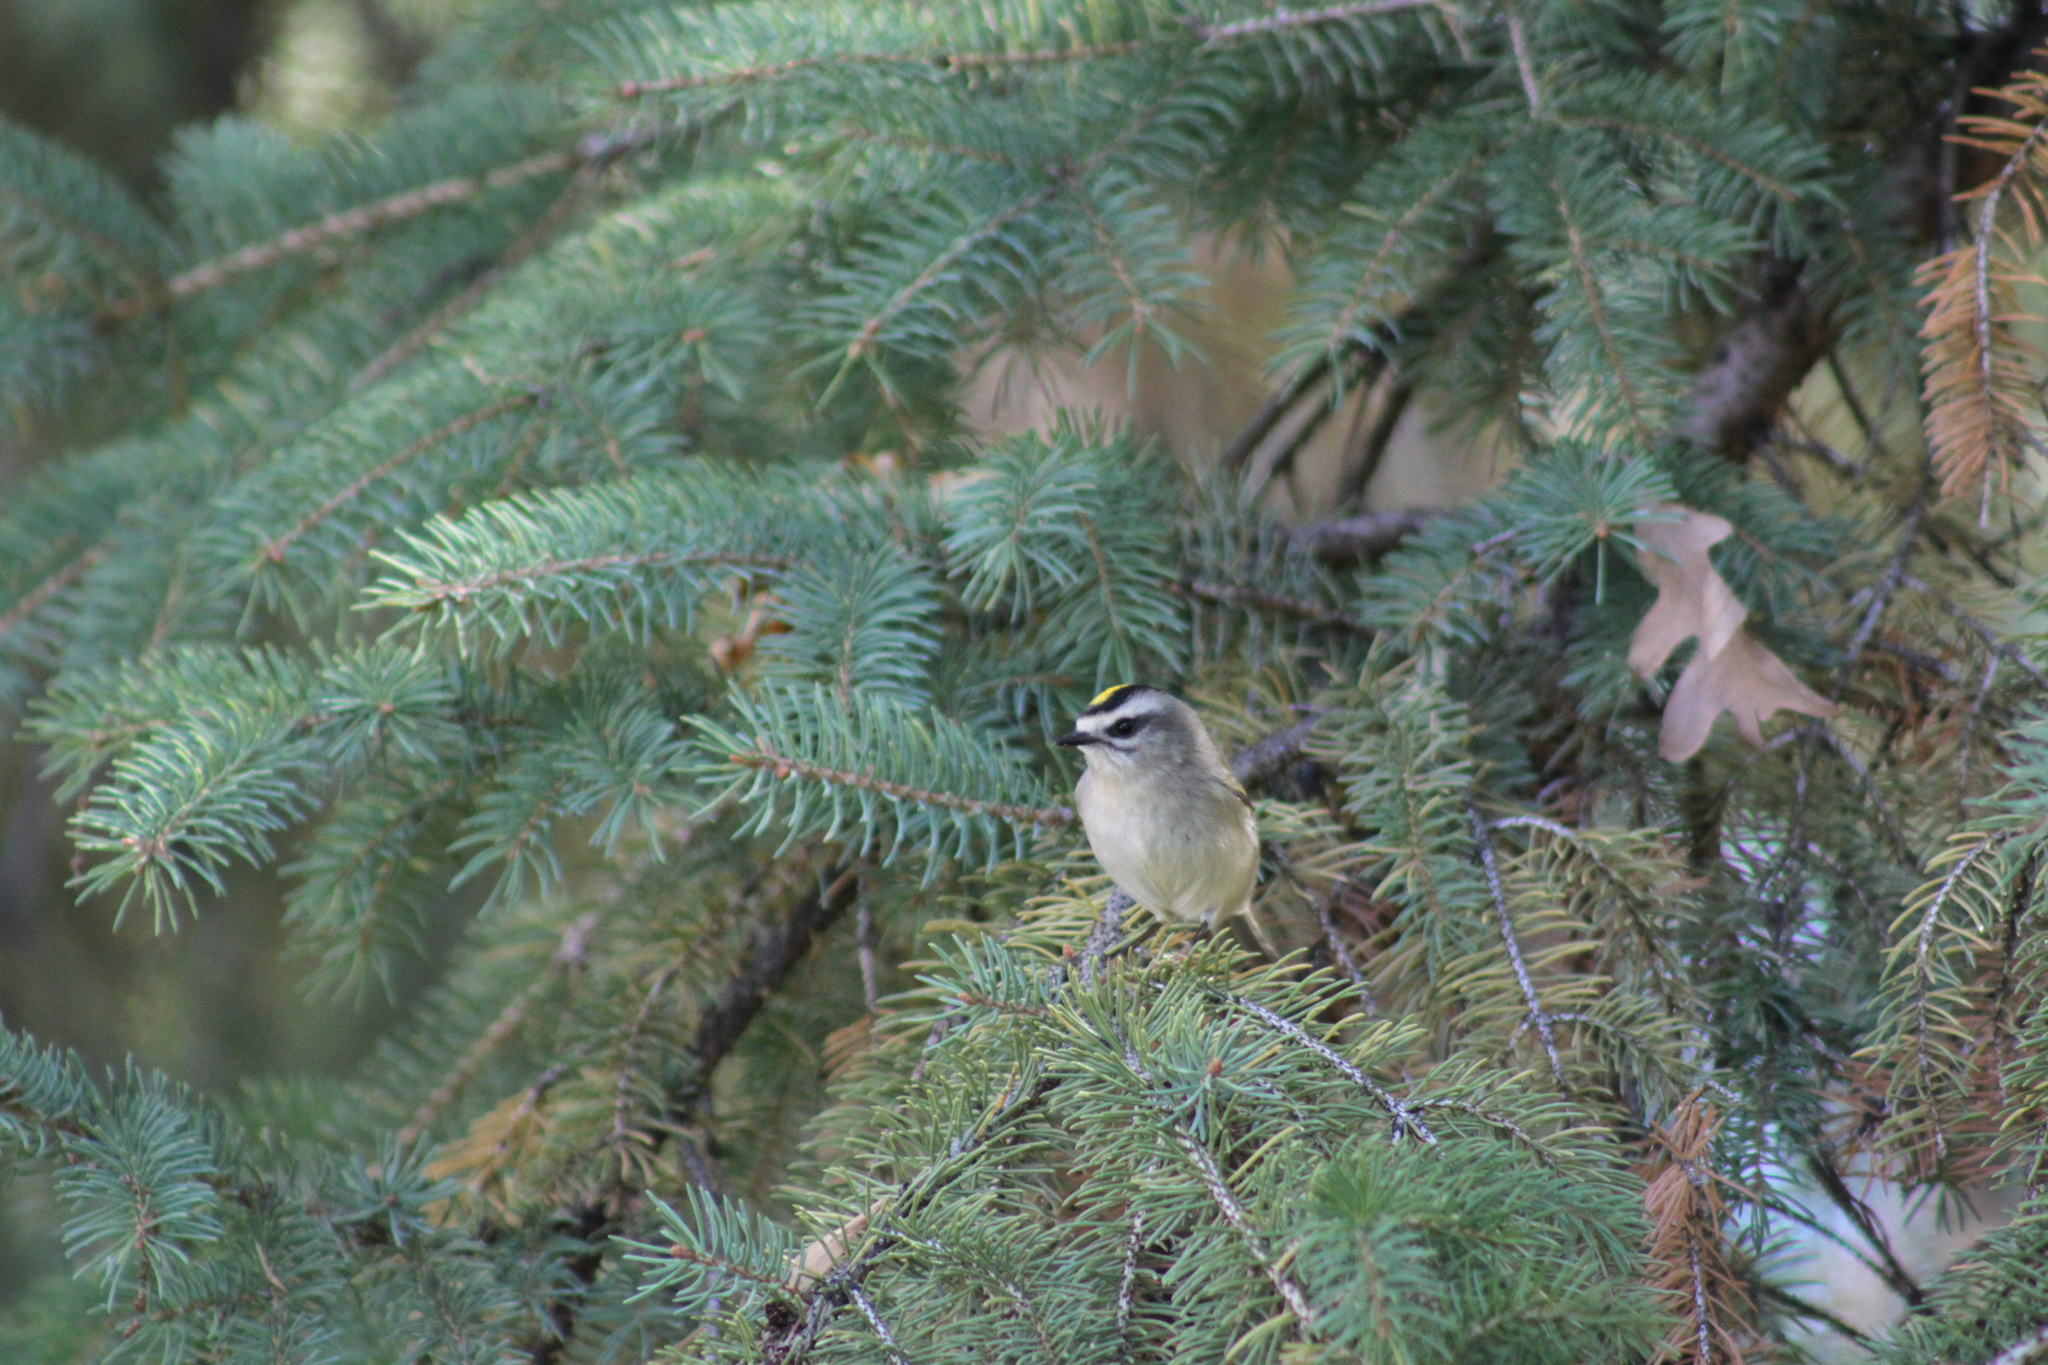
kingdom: Animalia
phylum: Chordata
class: Aves
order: Passeriformes
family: Regulidae
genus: Regulus
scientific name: Regulus satrapa
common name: Golden-crowned kinglet
